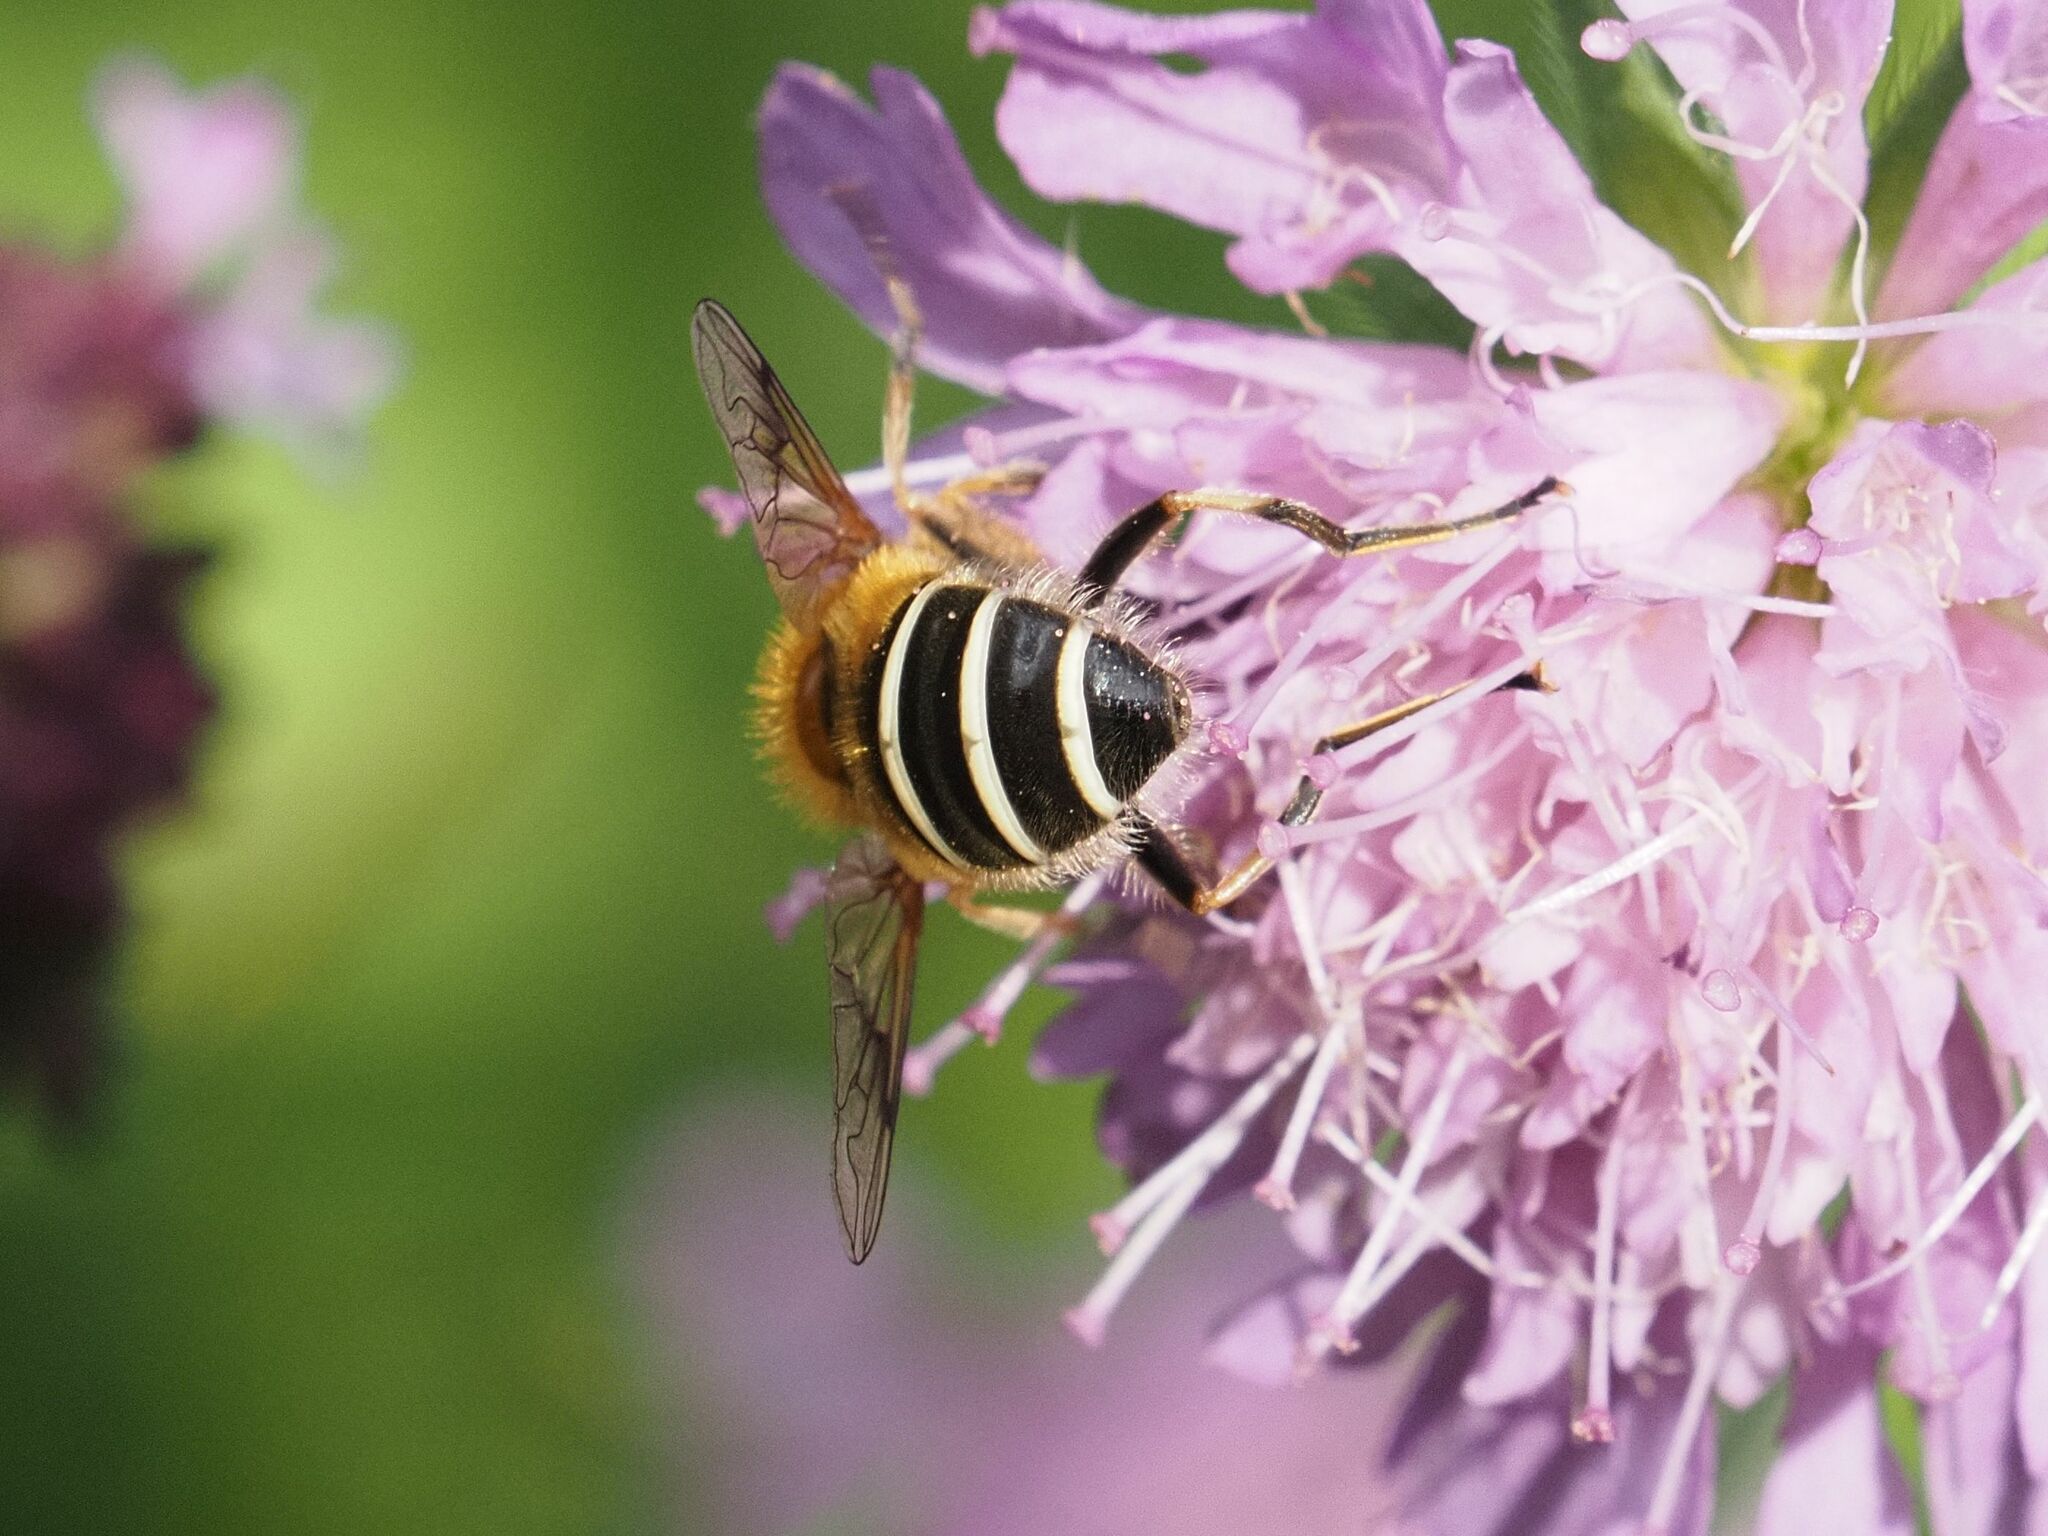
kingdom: Animalia
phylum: Arthropoda
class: Insecta
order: Diptera
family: Syrphidae
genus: Eristalis
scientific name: Eristalis jugorum
